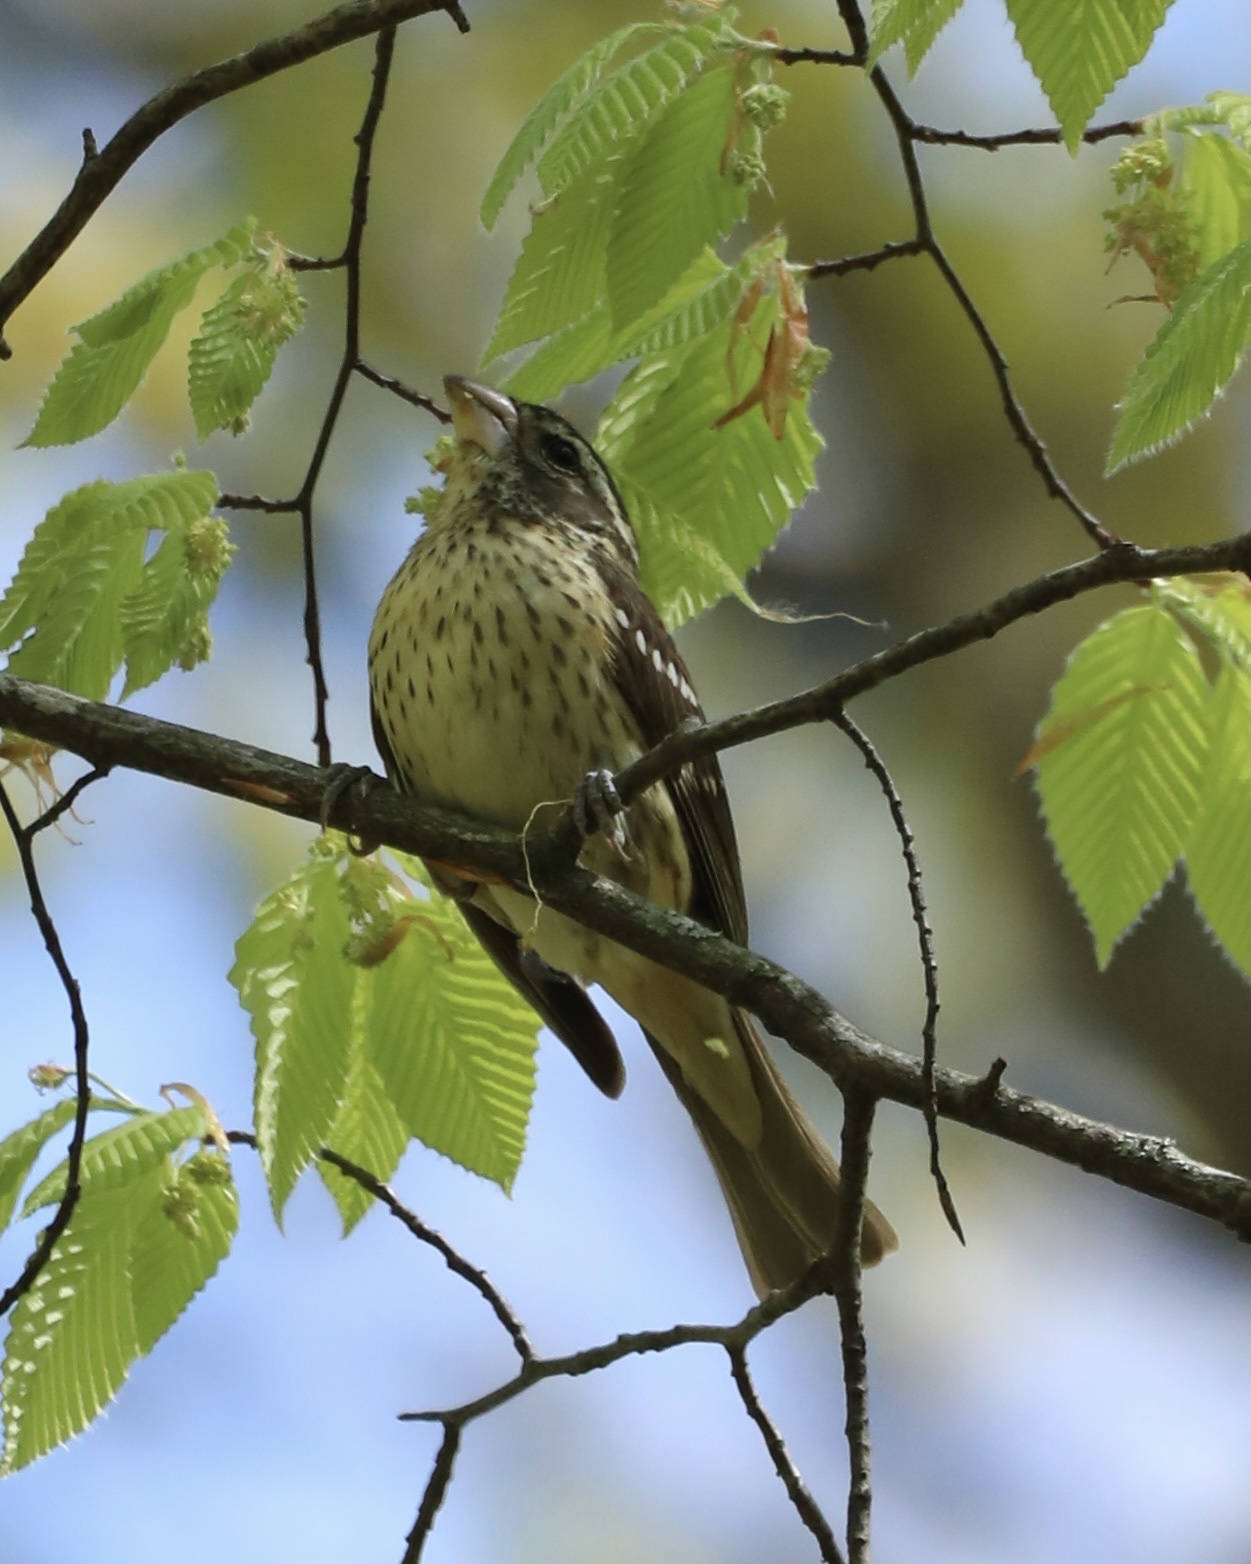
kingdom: Animalia
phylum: Chordata
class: Aves
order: Passeriformes
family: Cardinalidae
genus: Pheucticus
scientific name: Pheucticus ludovicianus
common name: Rose-breasted grosbeak
